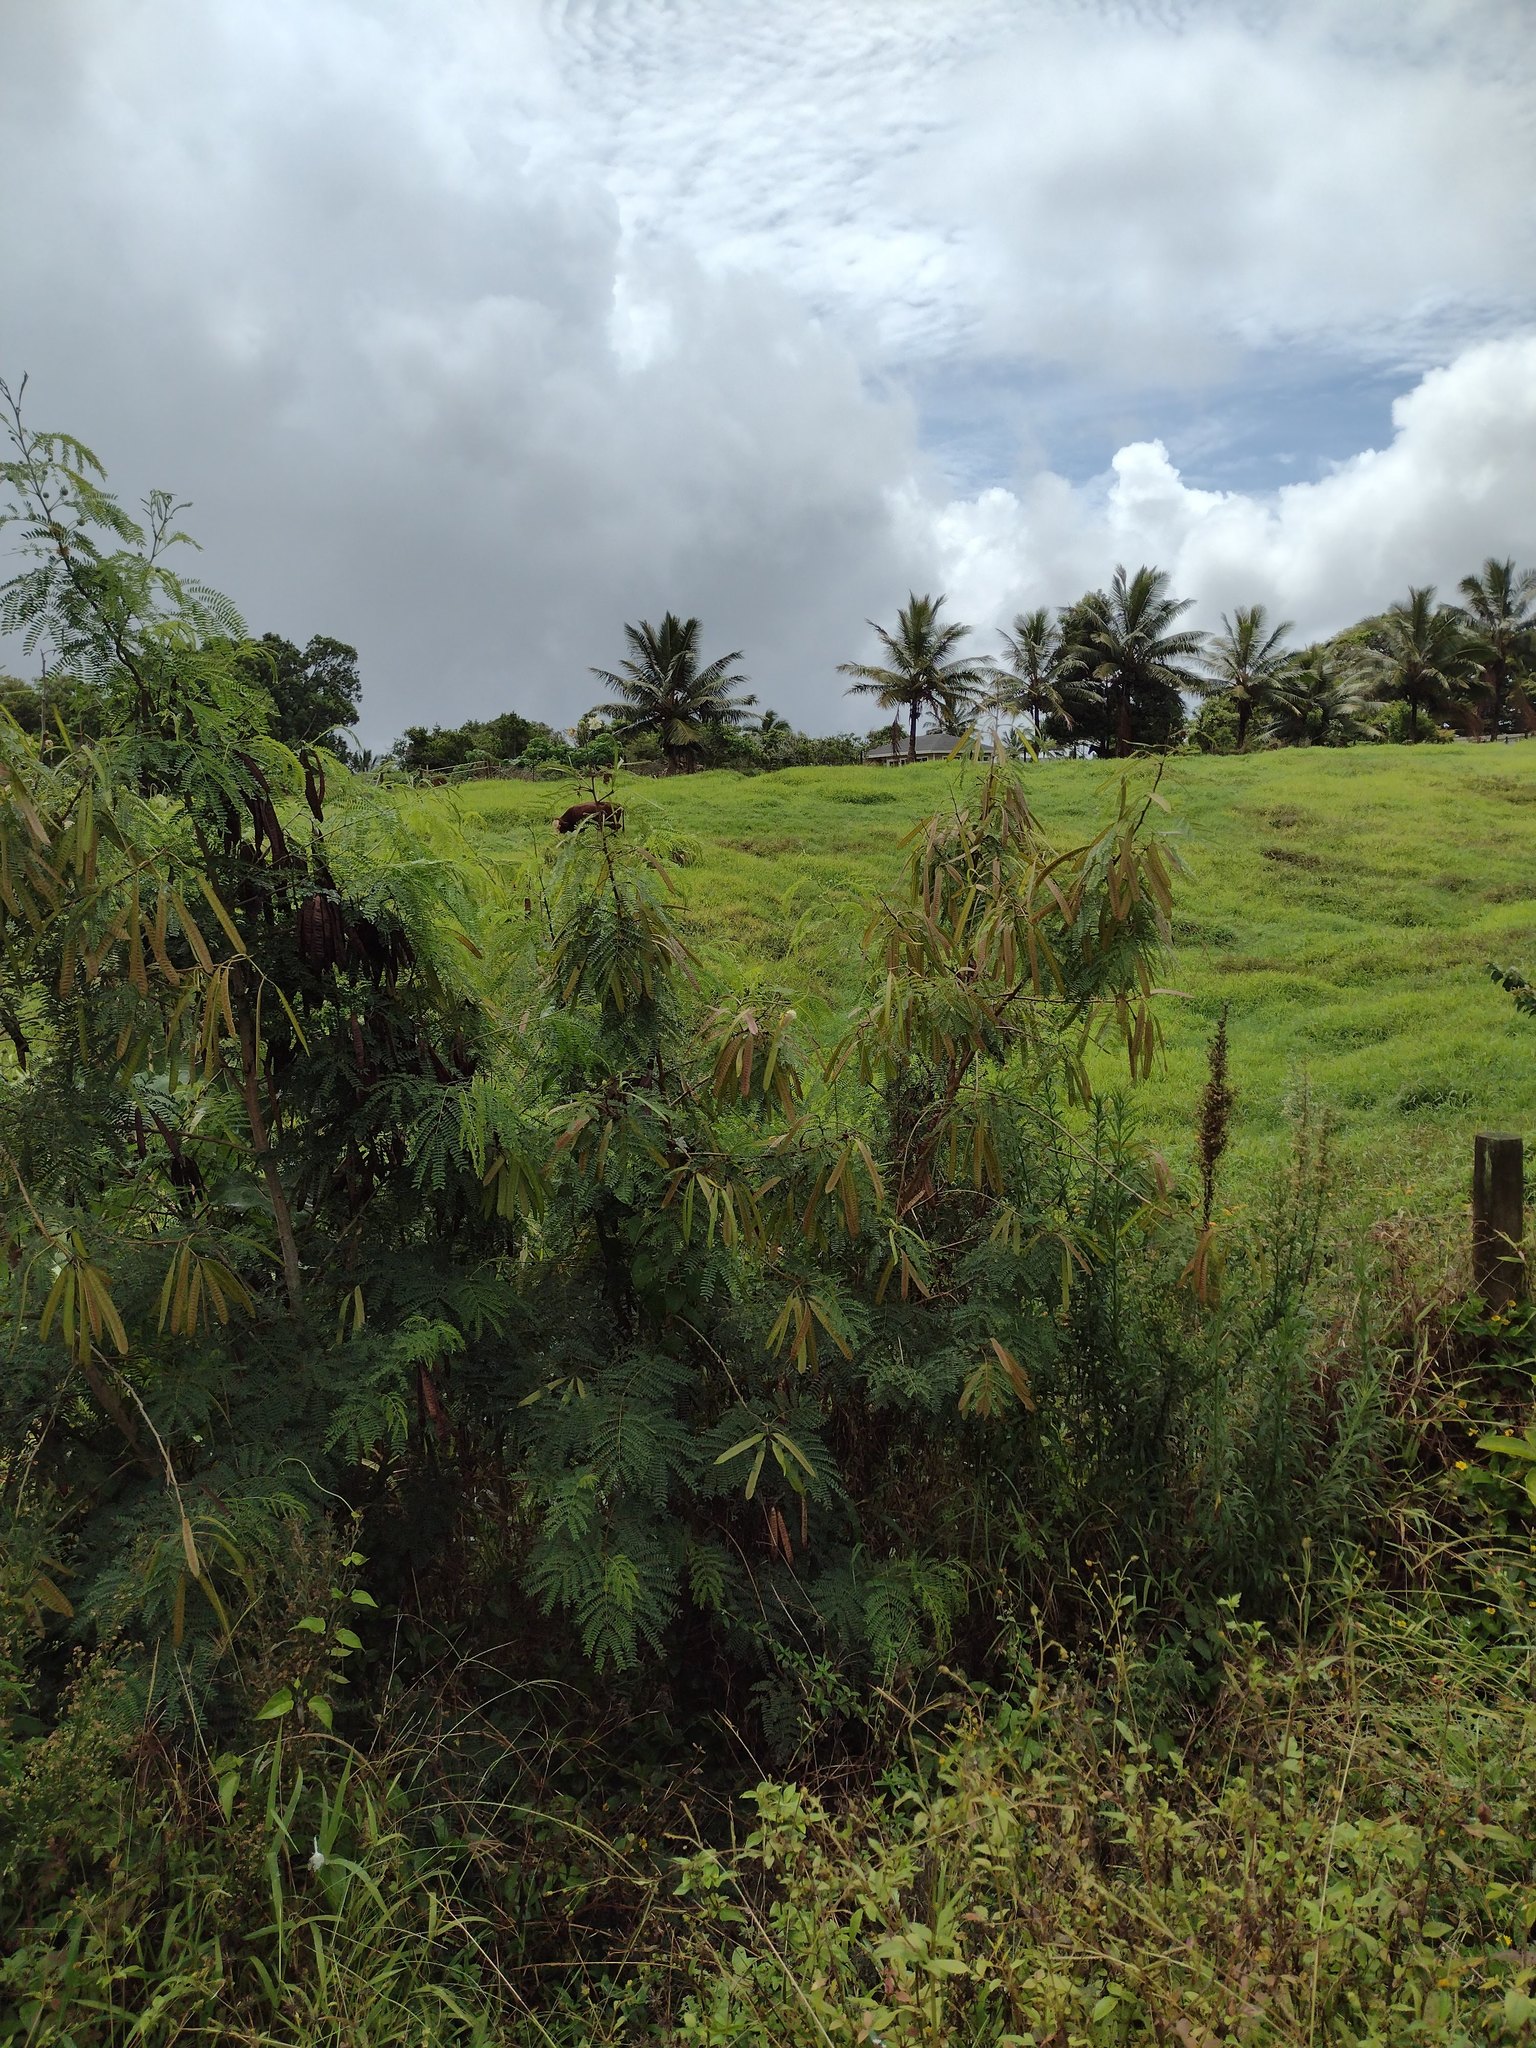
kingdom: Plantae
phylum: Tracheophyta
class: Magnoliopsida
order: Fabales
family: Fabaceae
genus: Leucaena
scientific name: Leucaena leucocephala
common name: White leadtree
